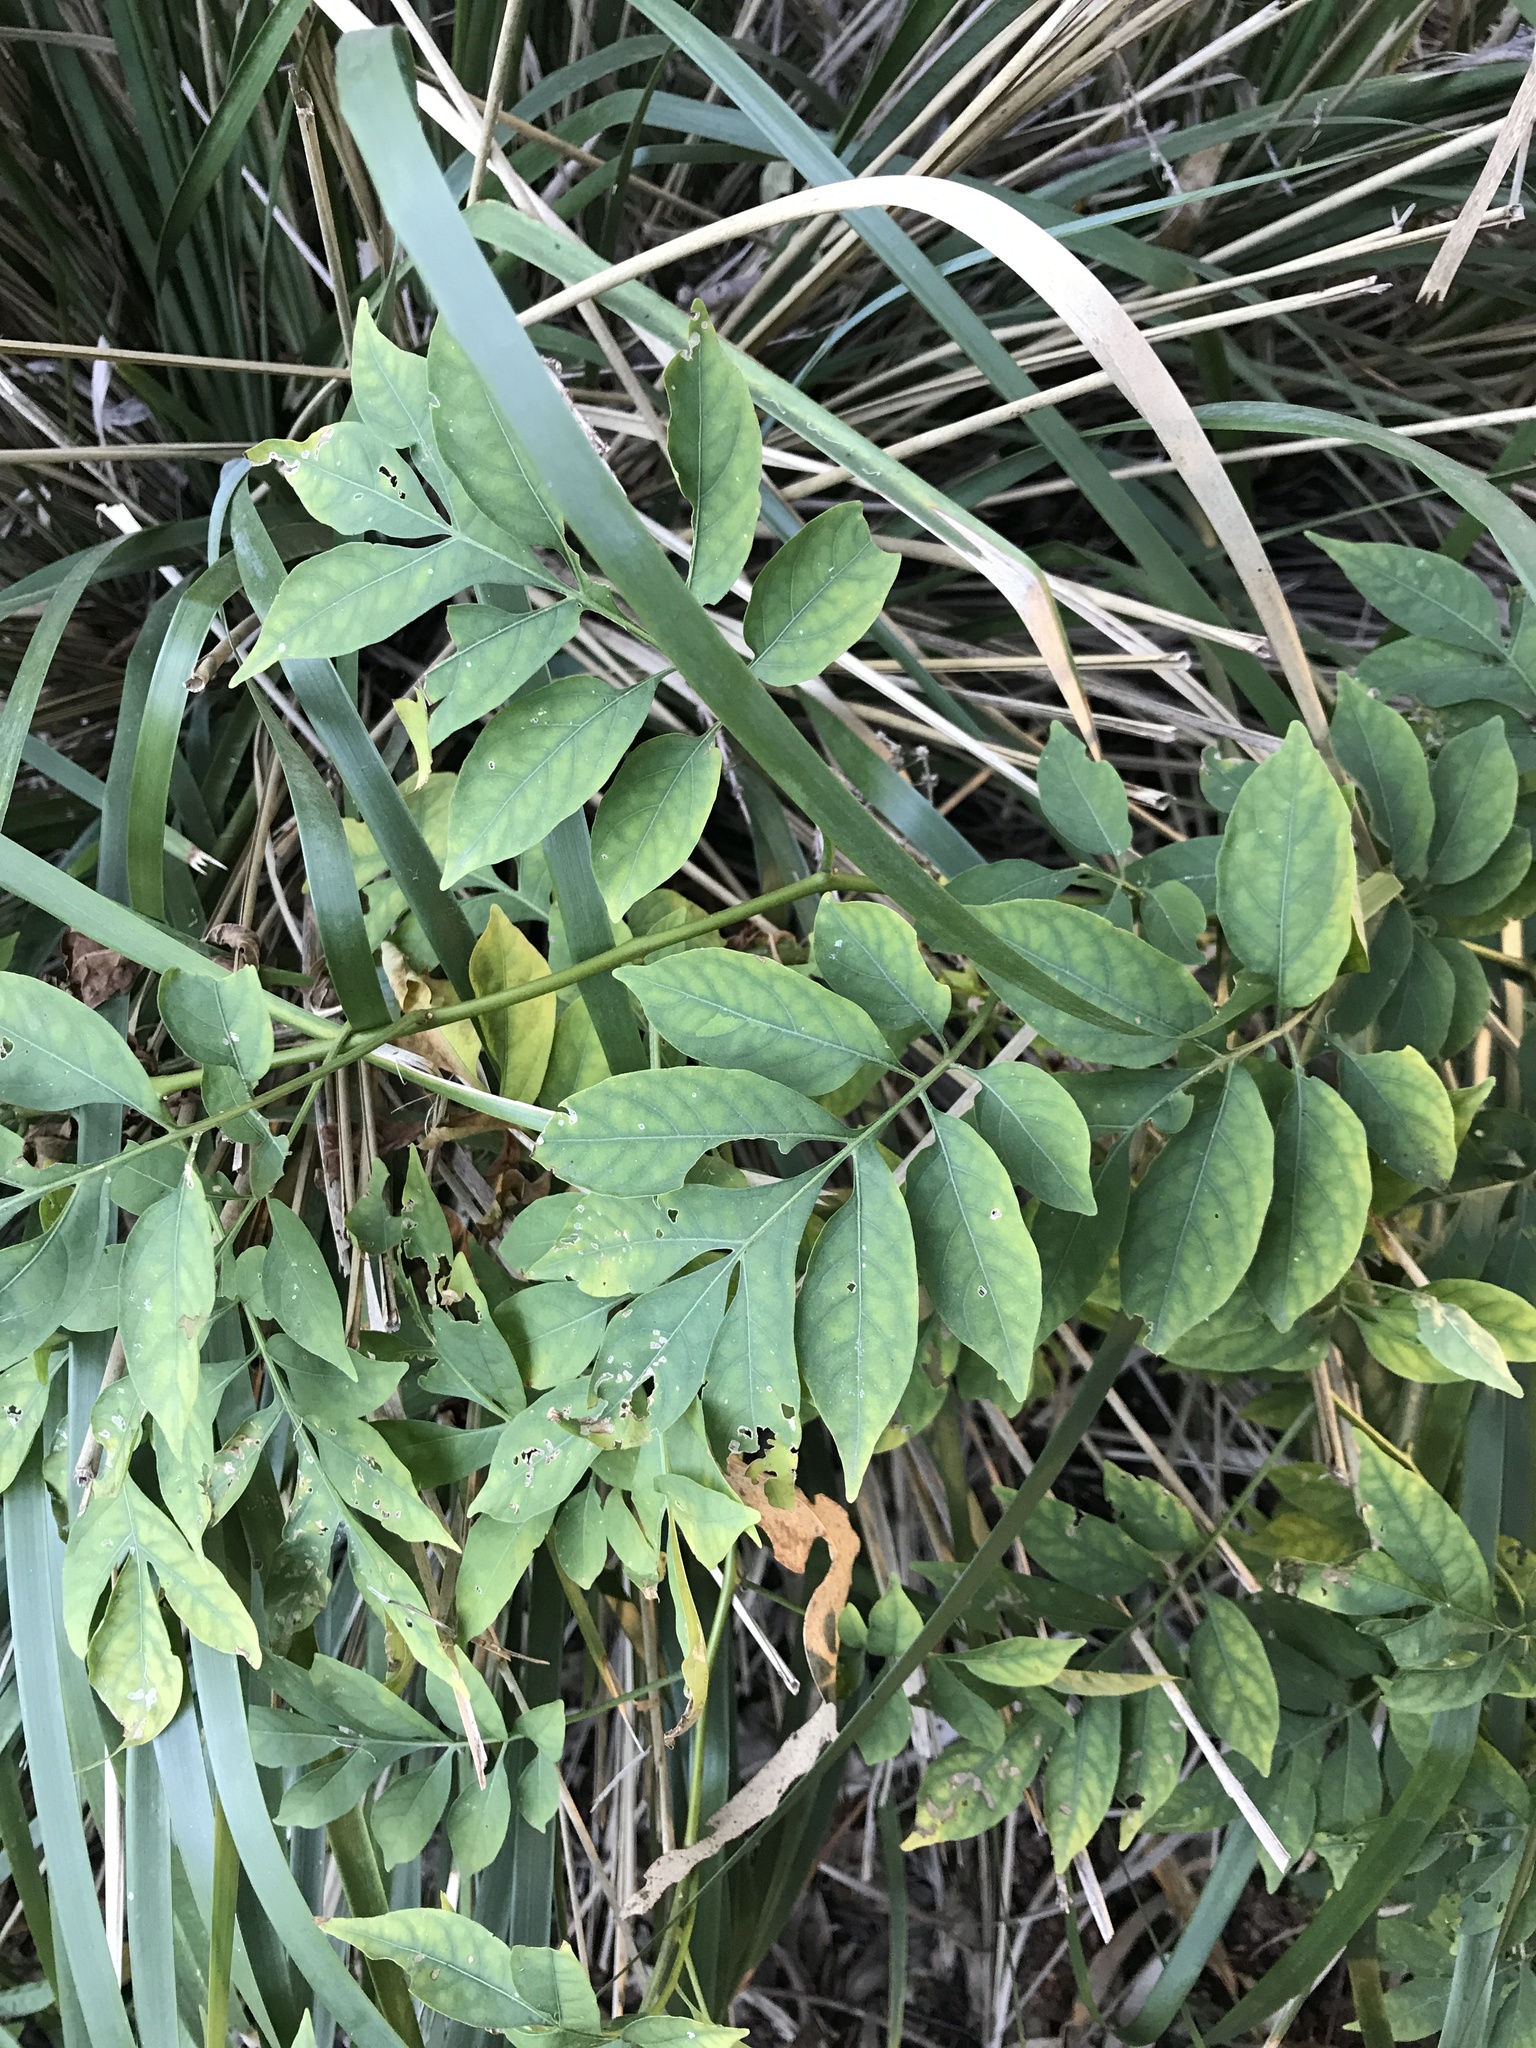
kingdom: Plantae
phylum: Tracheophyta
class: Magnoliopsida
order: Solanales
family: Solanaceae
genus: Solanum
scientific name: Solanum seaforthianum
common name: Brazilian nightshade
